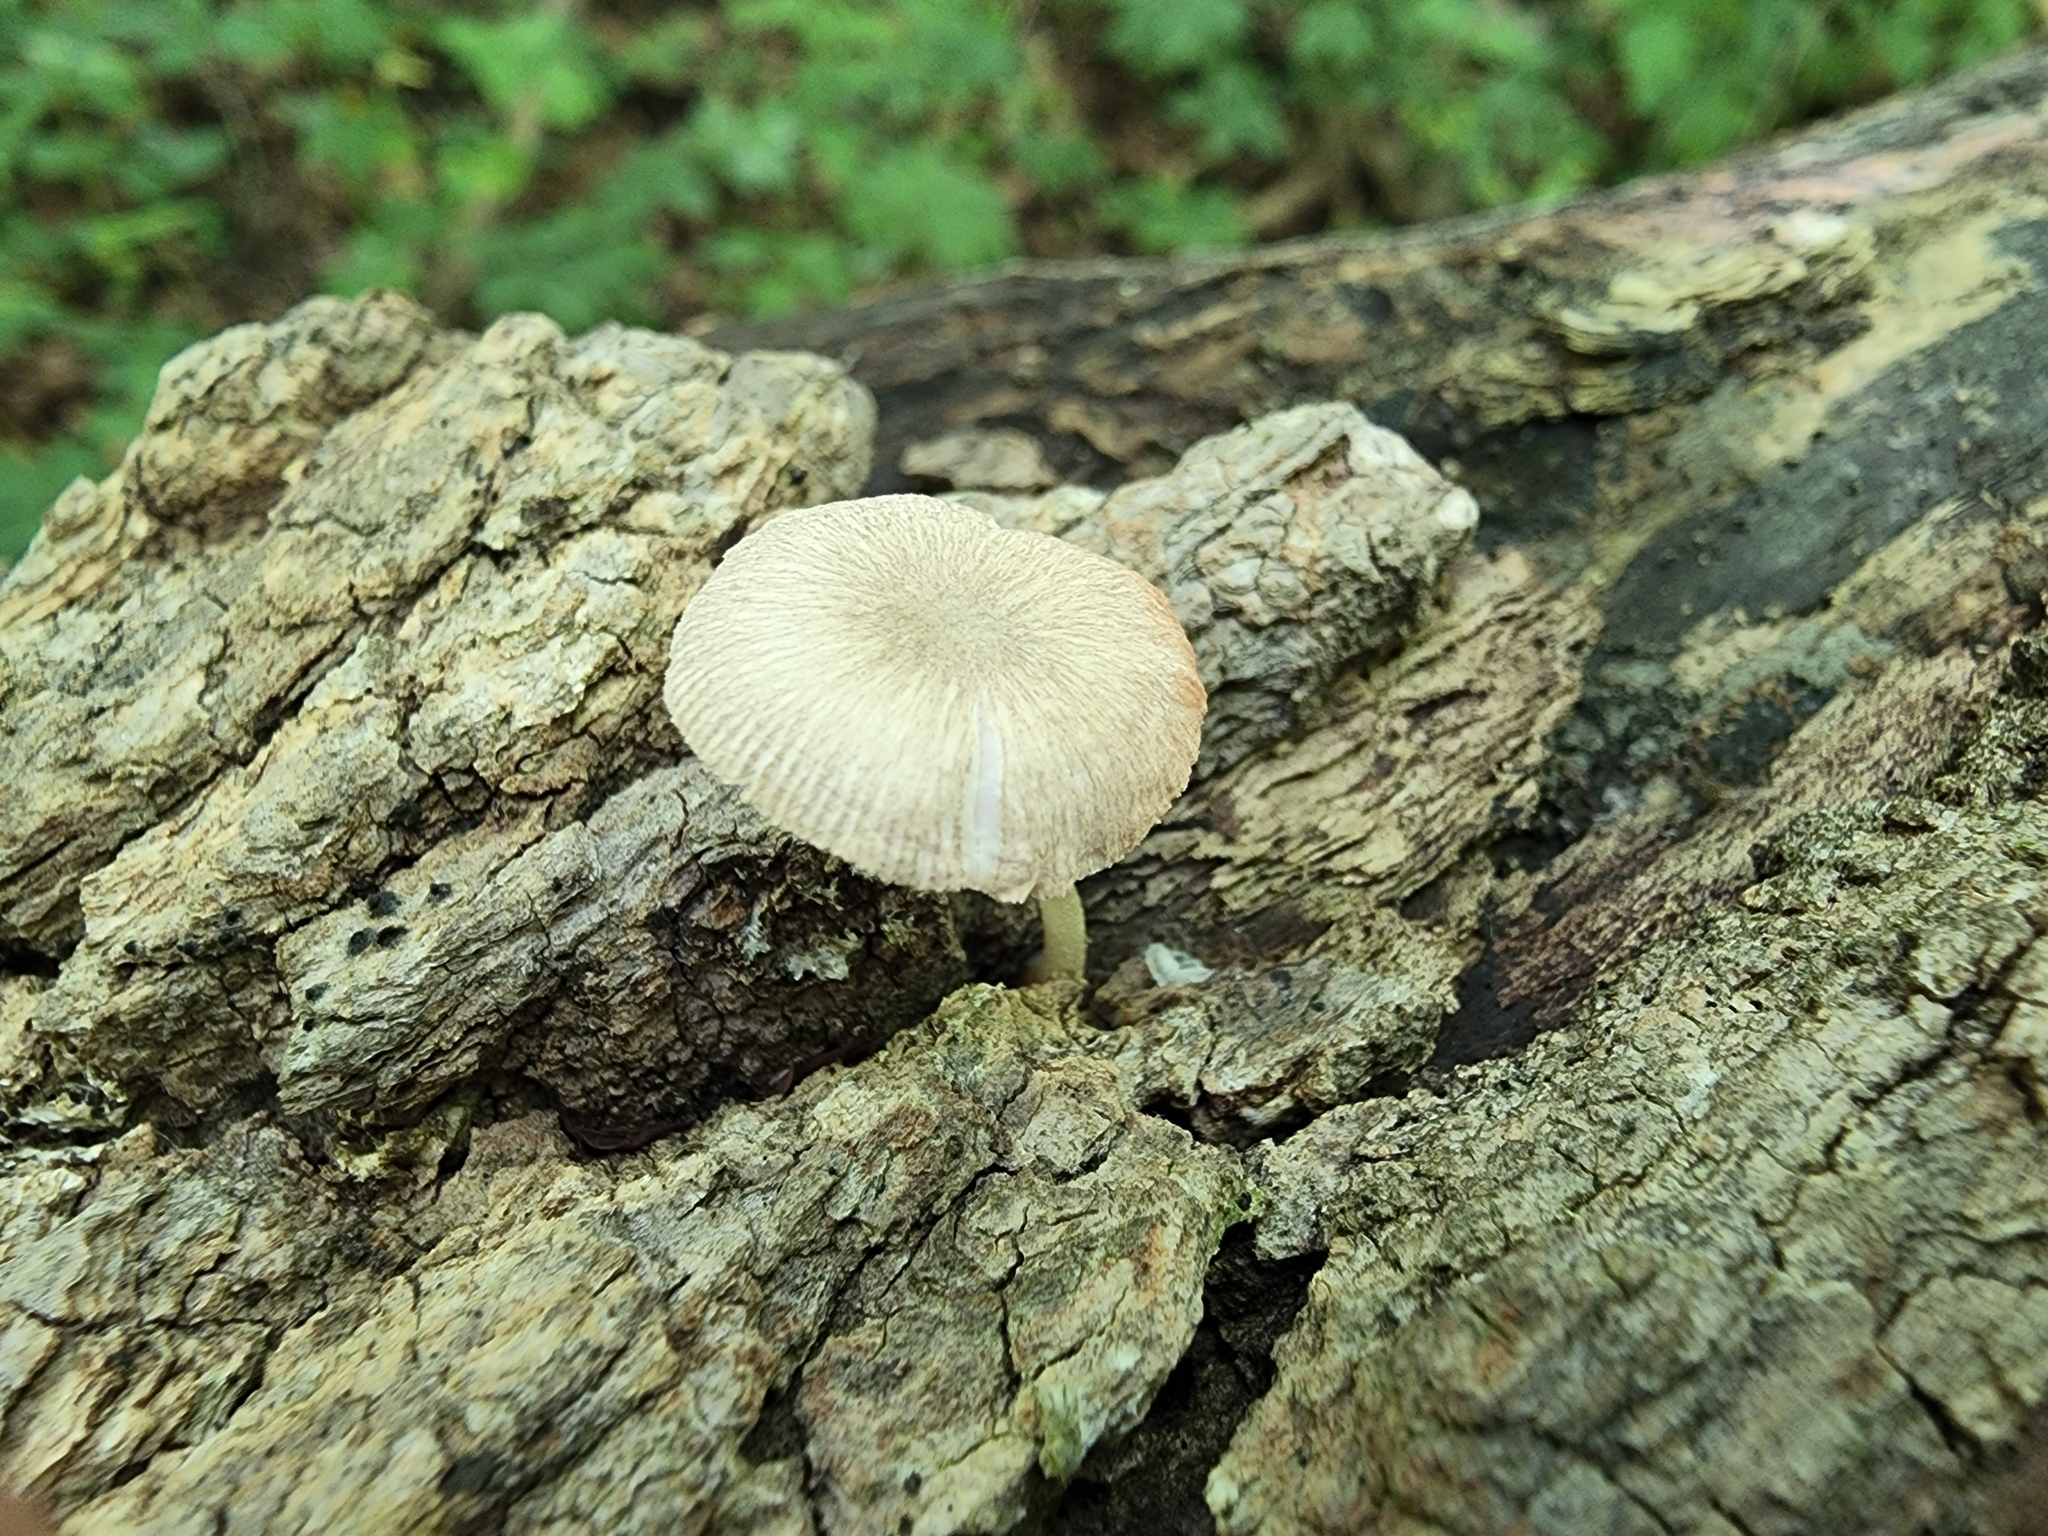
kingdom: Fungi
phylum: Basidiomycota
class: Agaricomycetes
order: Agaricales
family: Pluteaceae
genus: Pluteus
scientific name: Pluteus longistriatus
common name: Pleated pluteus
